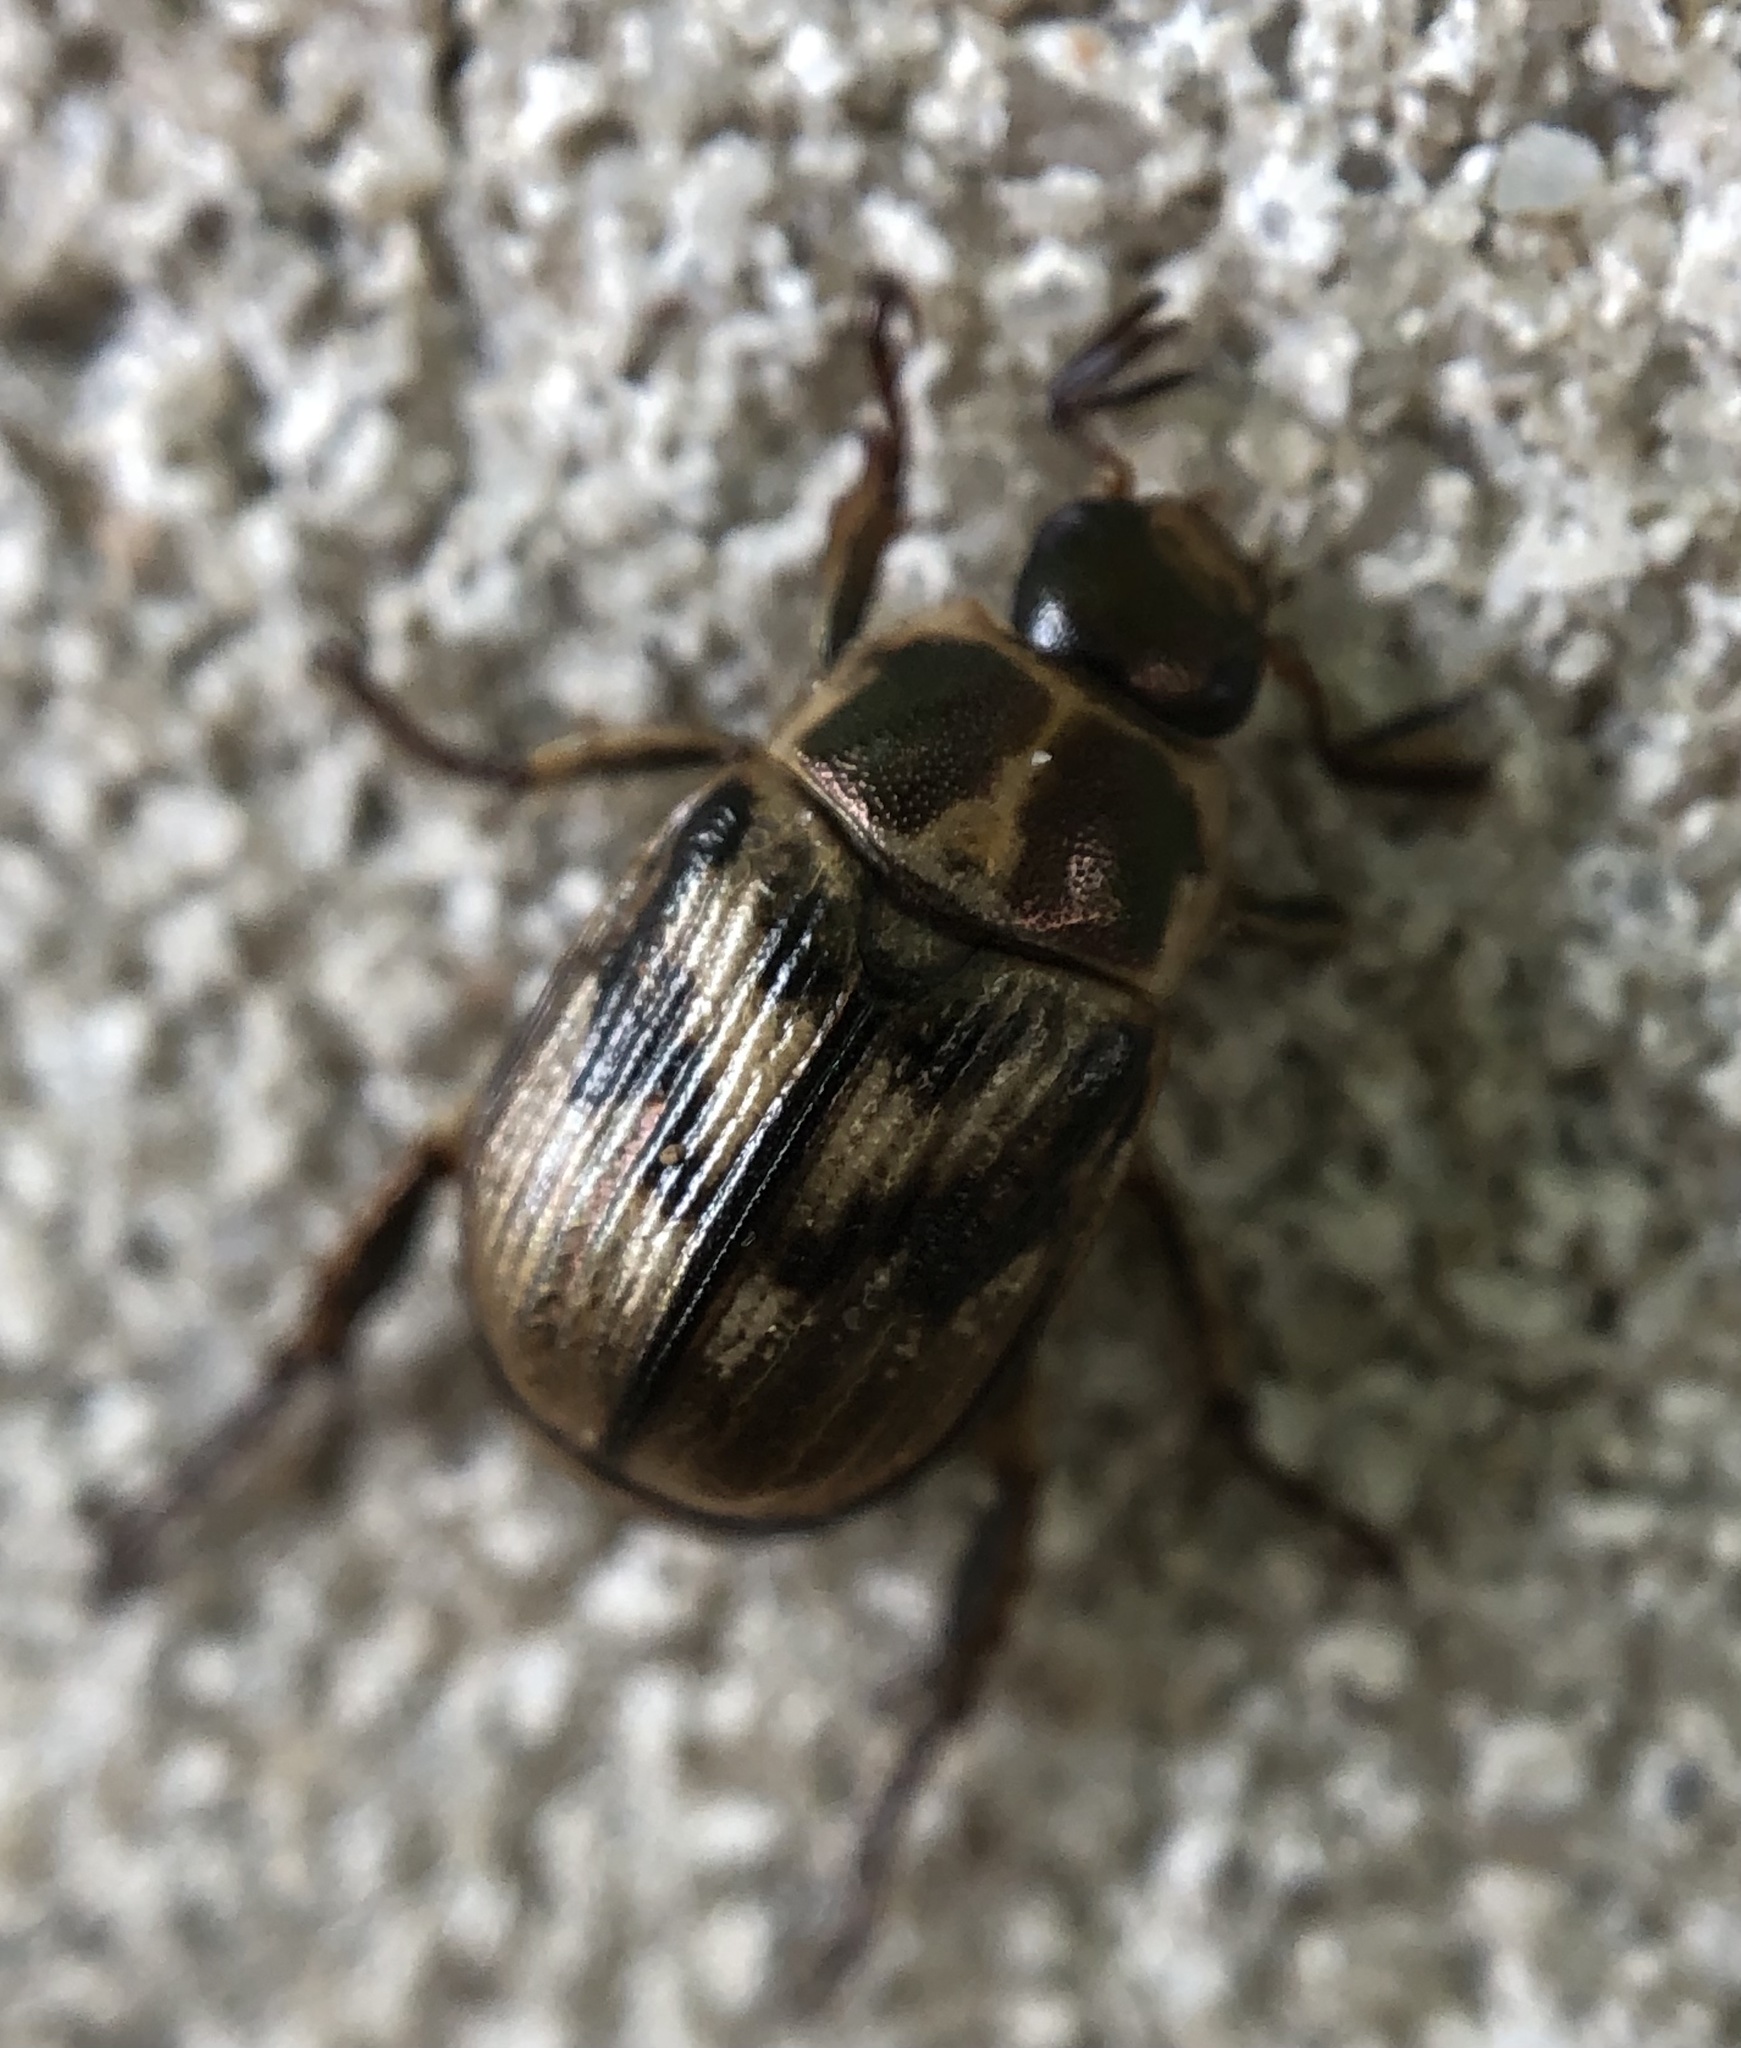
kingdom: Animalia
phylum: Arthropoda
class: Insecta
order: Coleoptera
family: Scarabaeidae
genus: Exomala
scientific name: Exomala orientalis
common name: Oriental beetle
